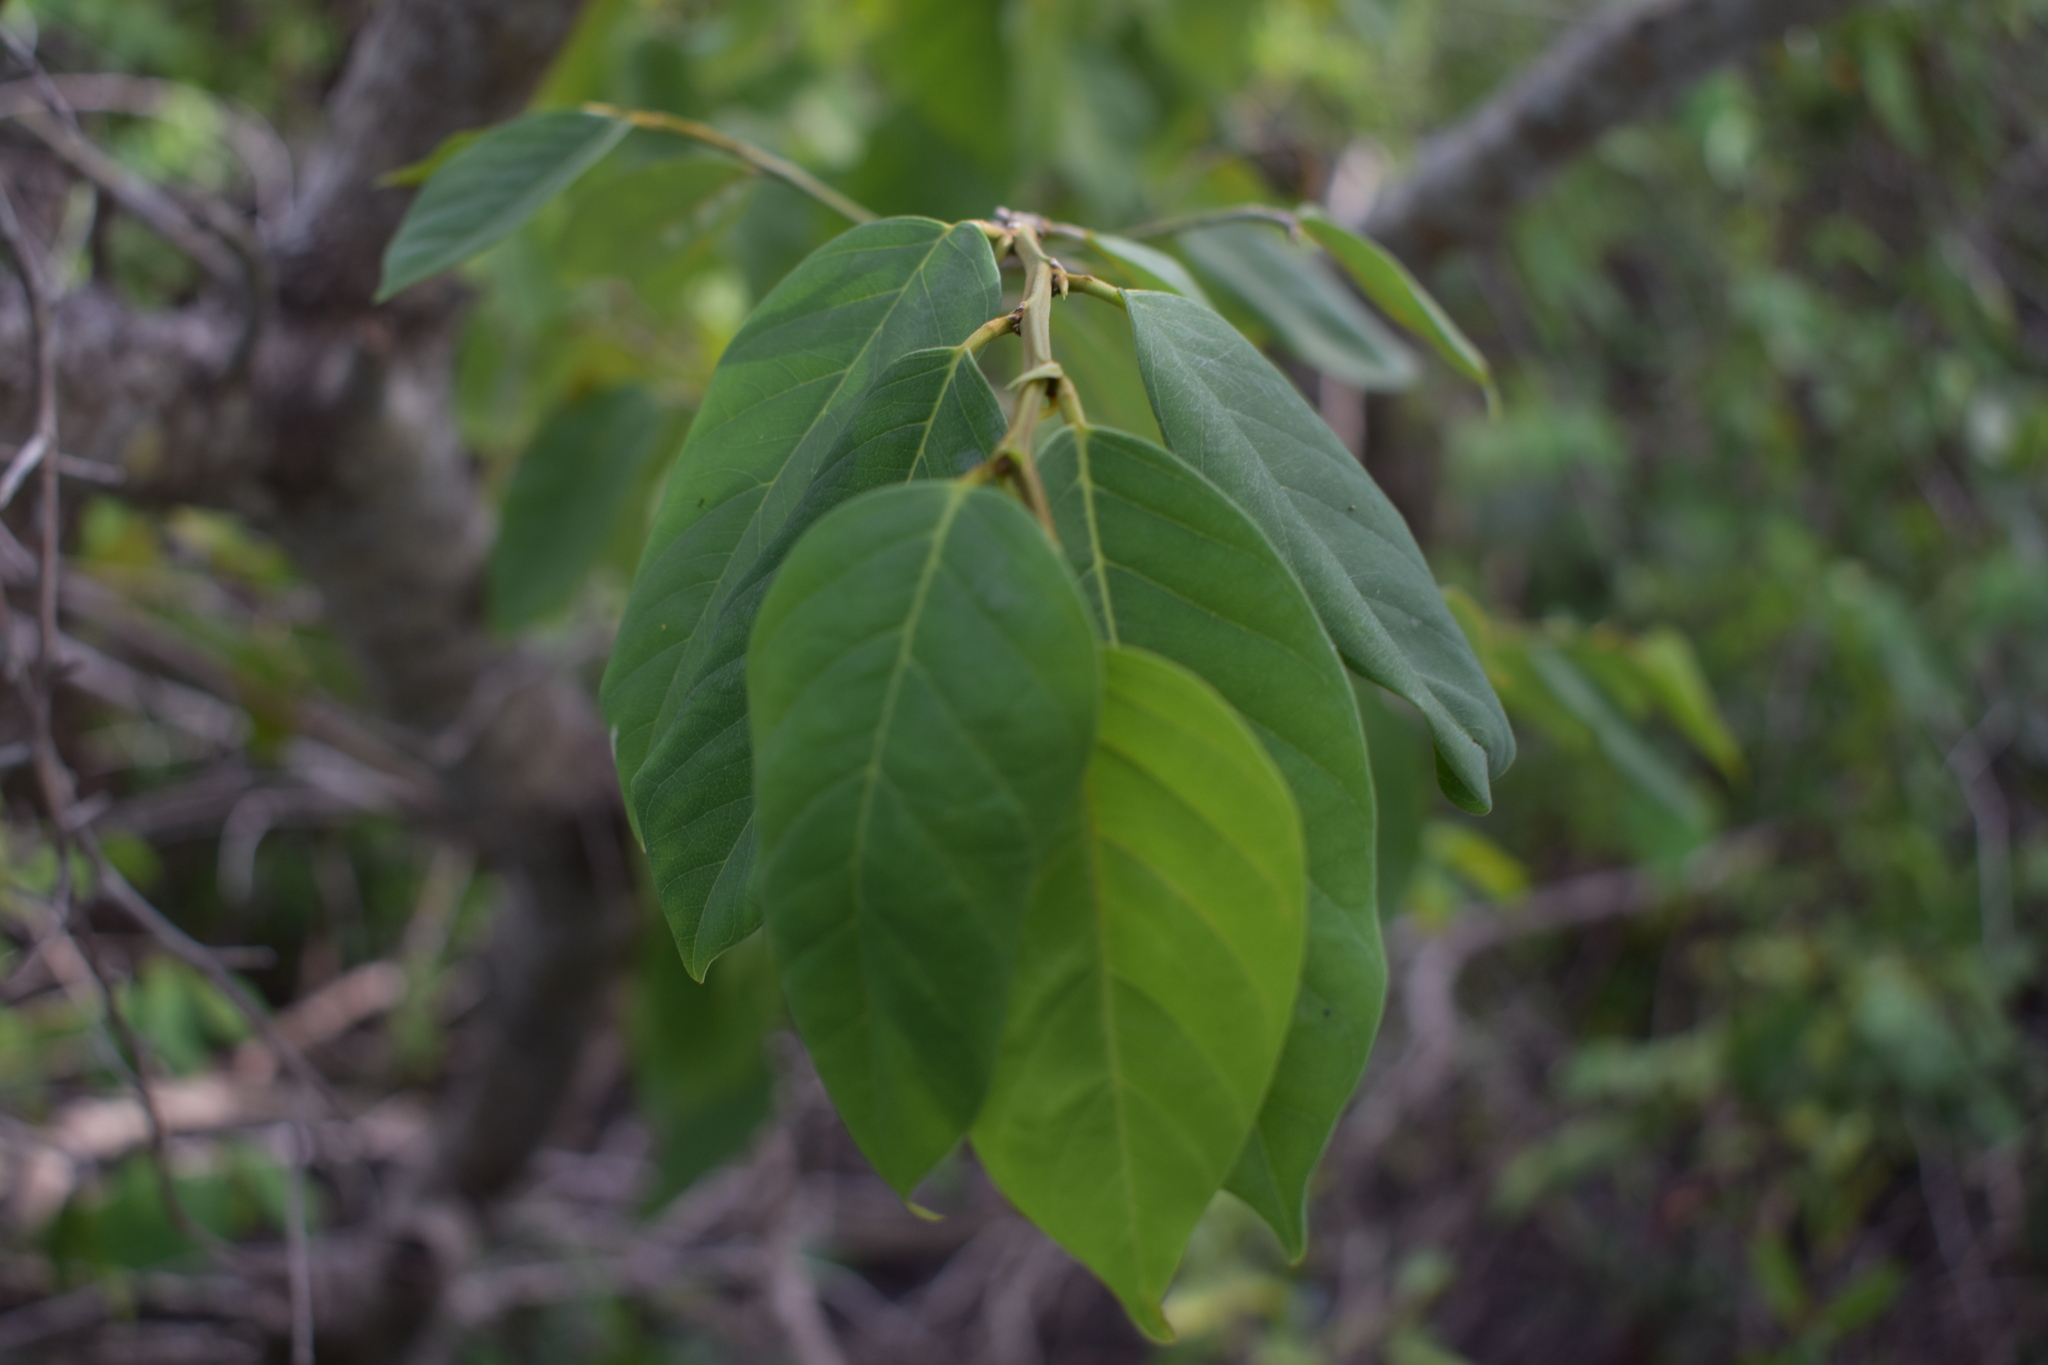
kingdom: Plantae
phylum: Tracheophyta
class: Magnoliopsida
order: Fabales
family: Fabaceae
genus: Dalbergia
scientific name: Dalbergia ecastaphyllum
